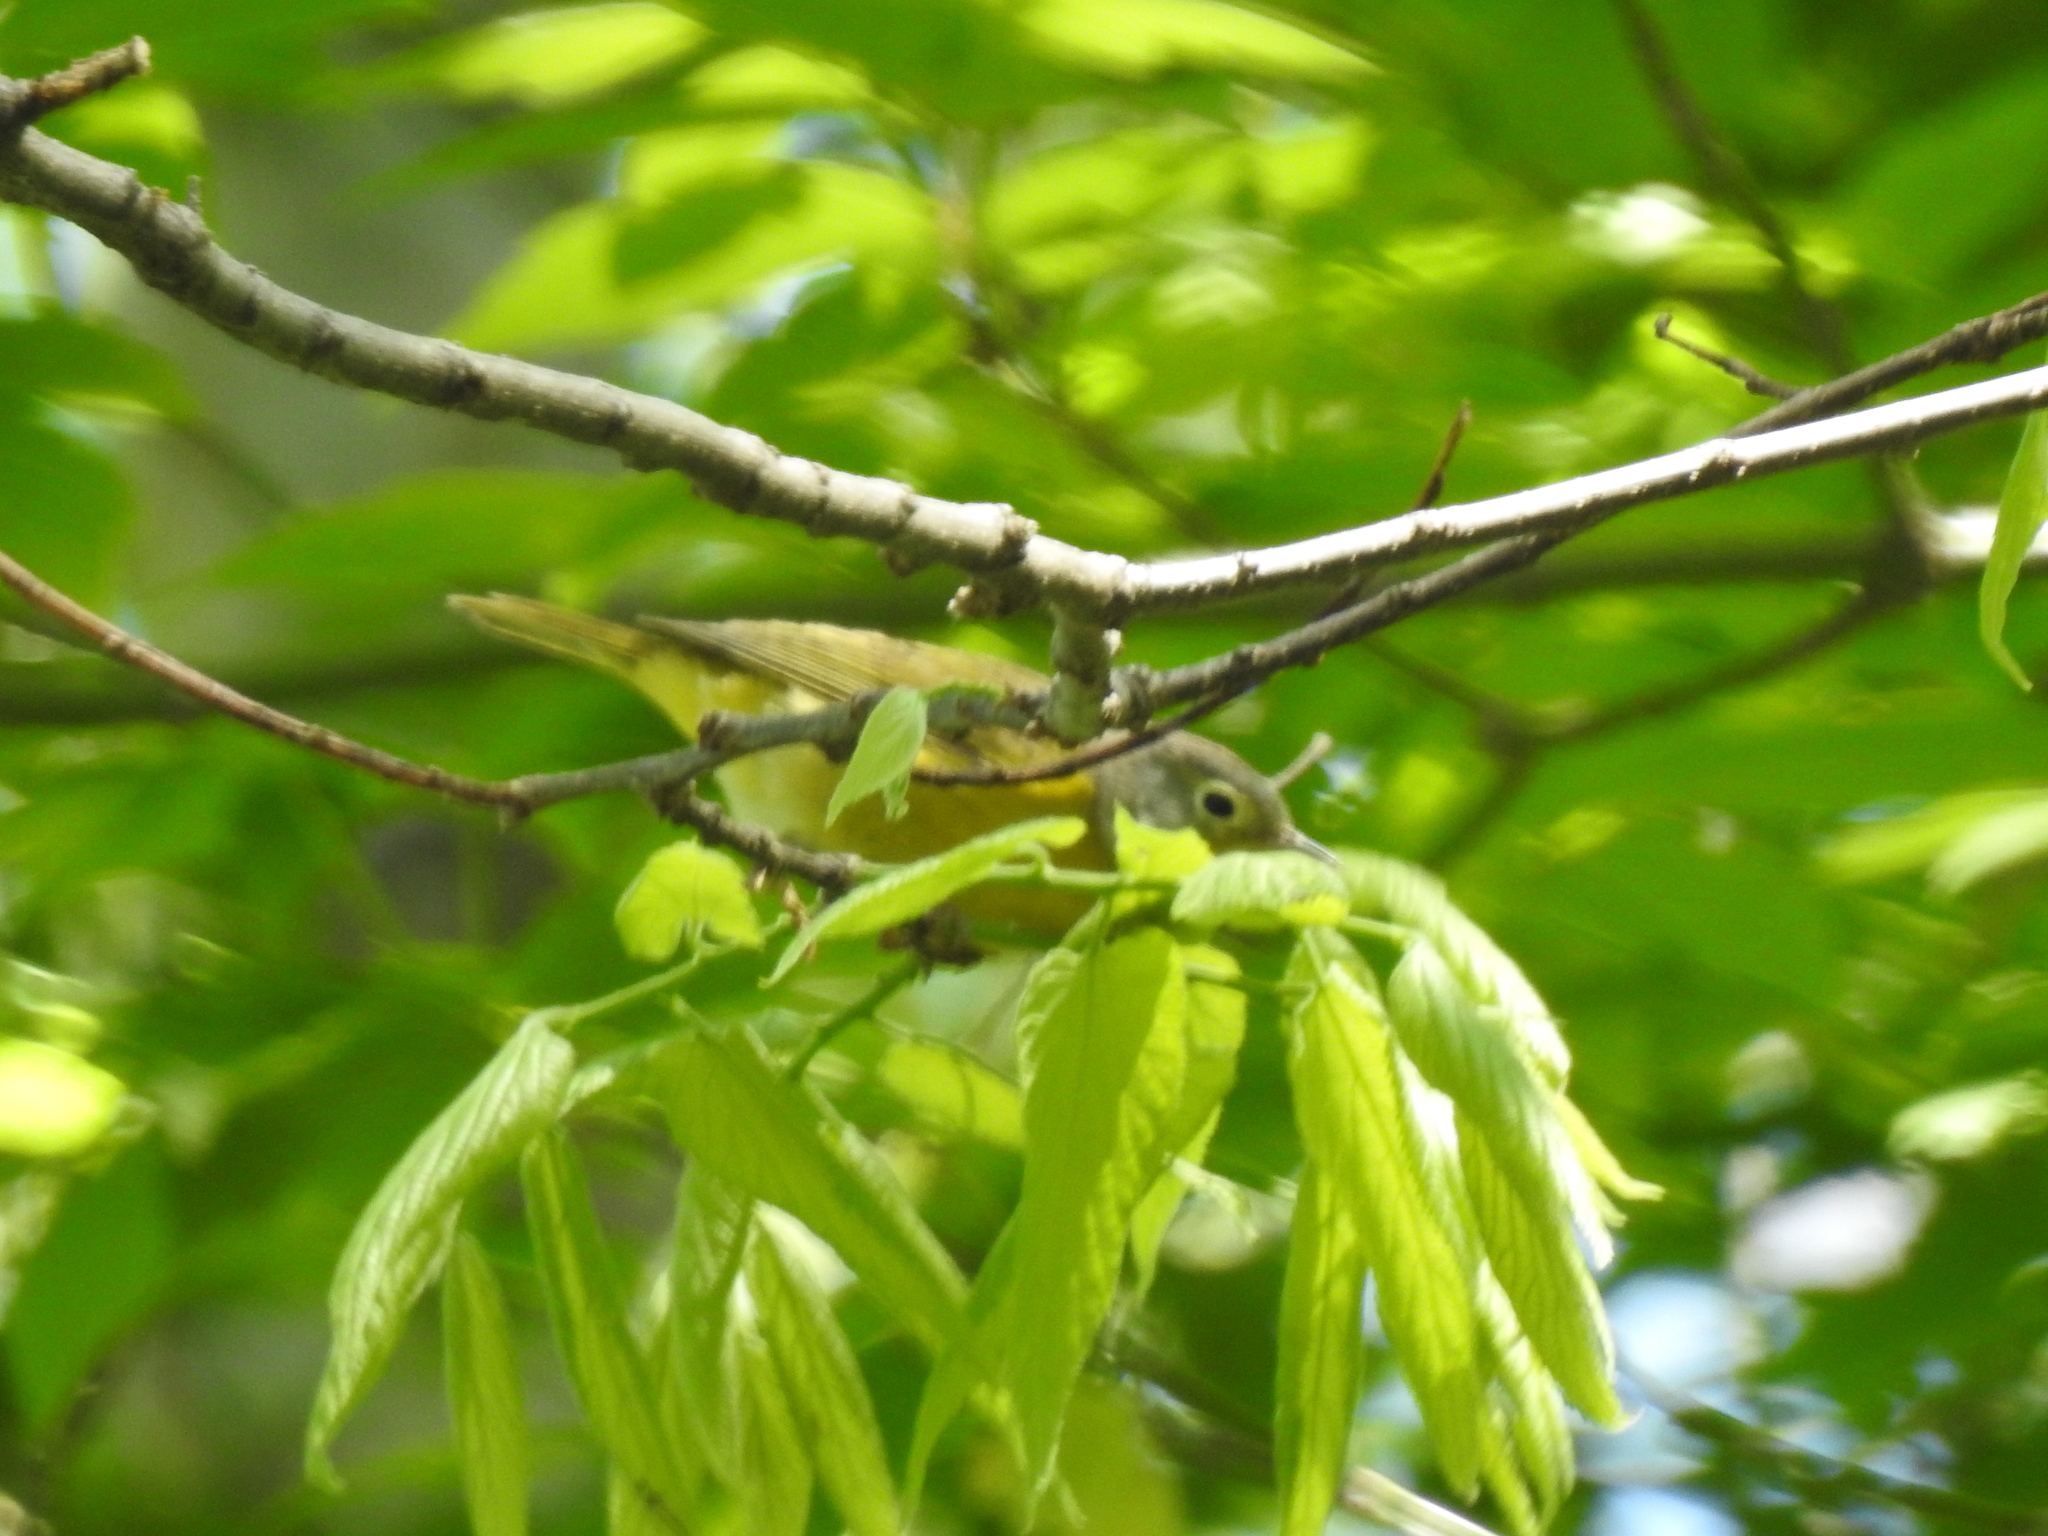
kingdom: Animalia
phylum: Chordata
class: Aves
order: Passeriformes
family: Parulidae
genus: Leiothlypis
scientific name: Leiothlypis ruficapilla
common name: Nashville warbler
